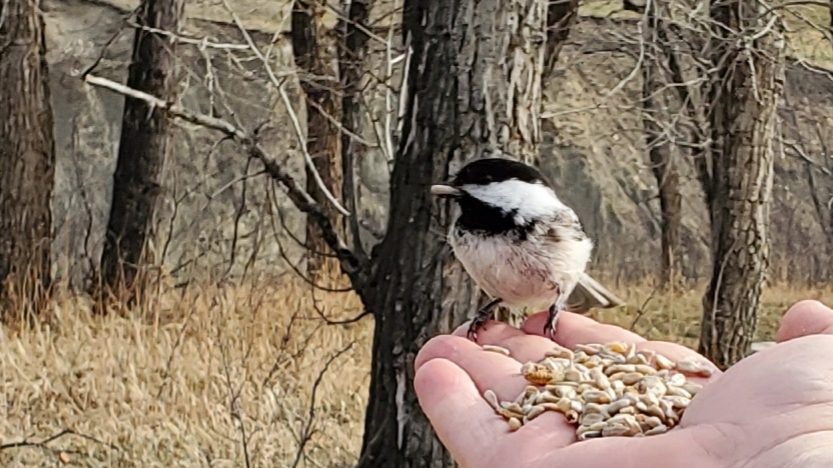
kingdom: Animalia
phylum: Chordata
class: Aves
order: Passeriformes
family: Paridae
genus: Poecile
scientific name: Poecile atricapillus
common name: Black-capped chickadee
